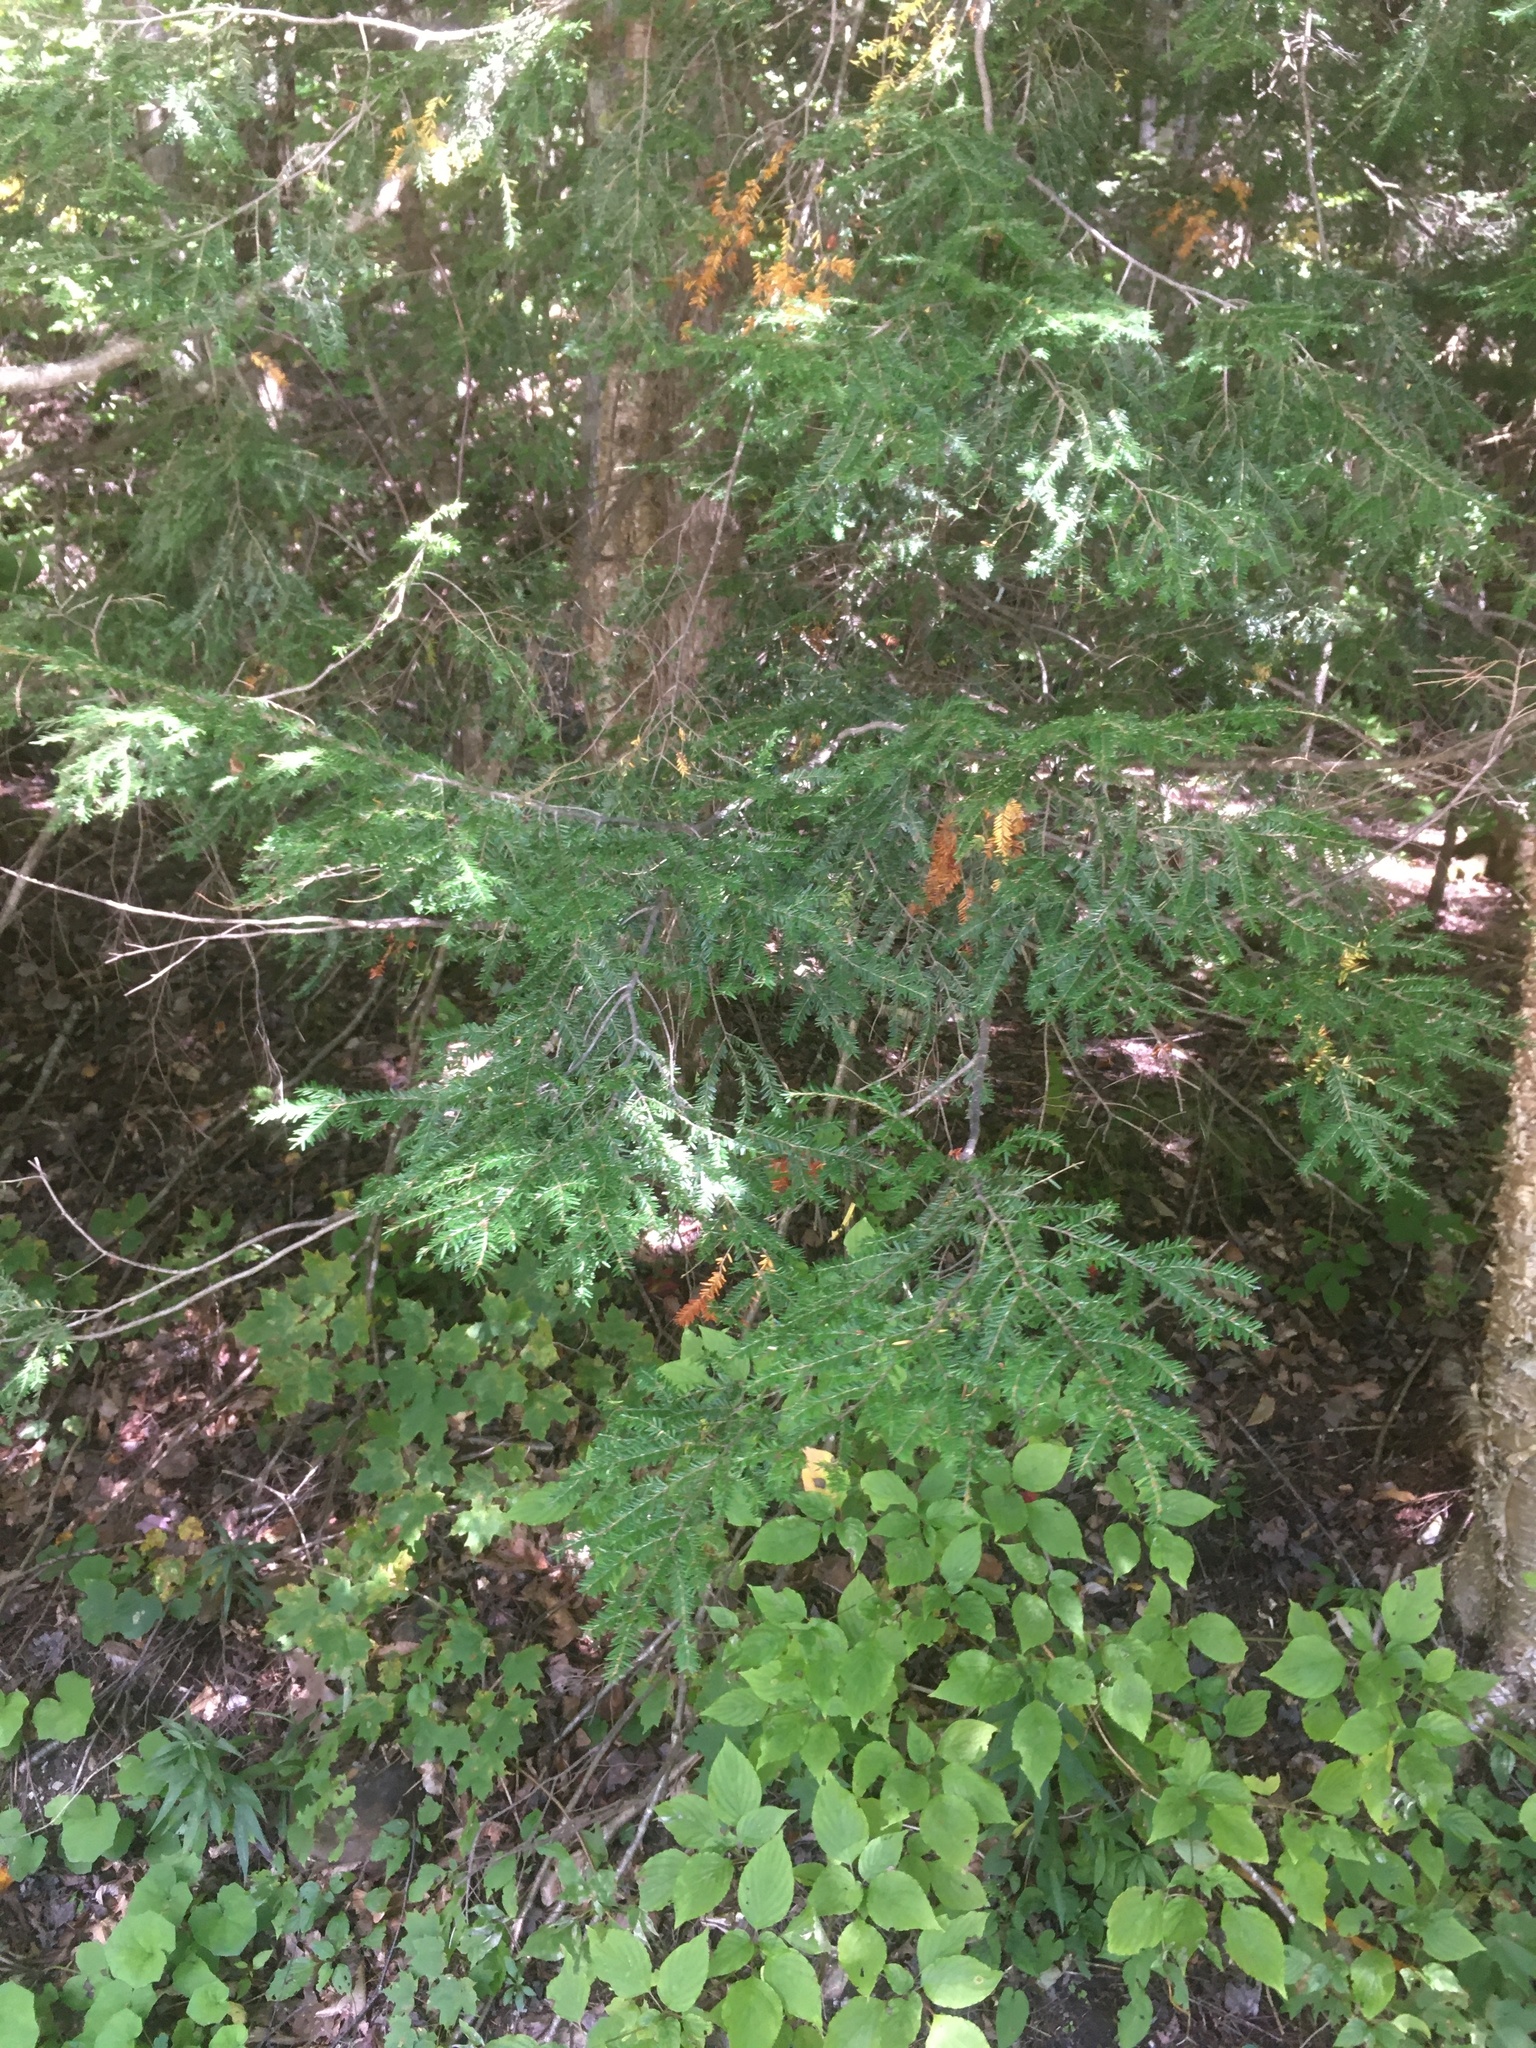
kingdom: Plantae
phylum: Tracheophyta
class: Pinopsida
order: Pinales
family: Pinaceae
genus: Tsuga
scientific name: Tsuga canadensis
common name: Eastern hemlock
